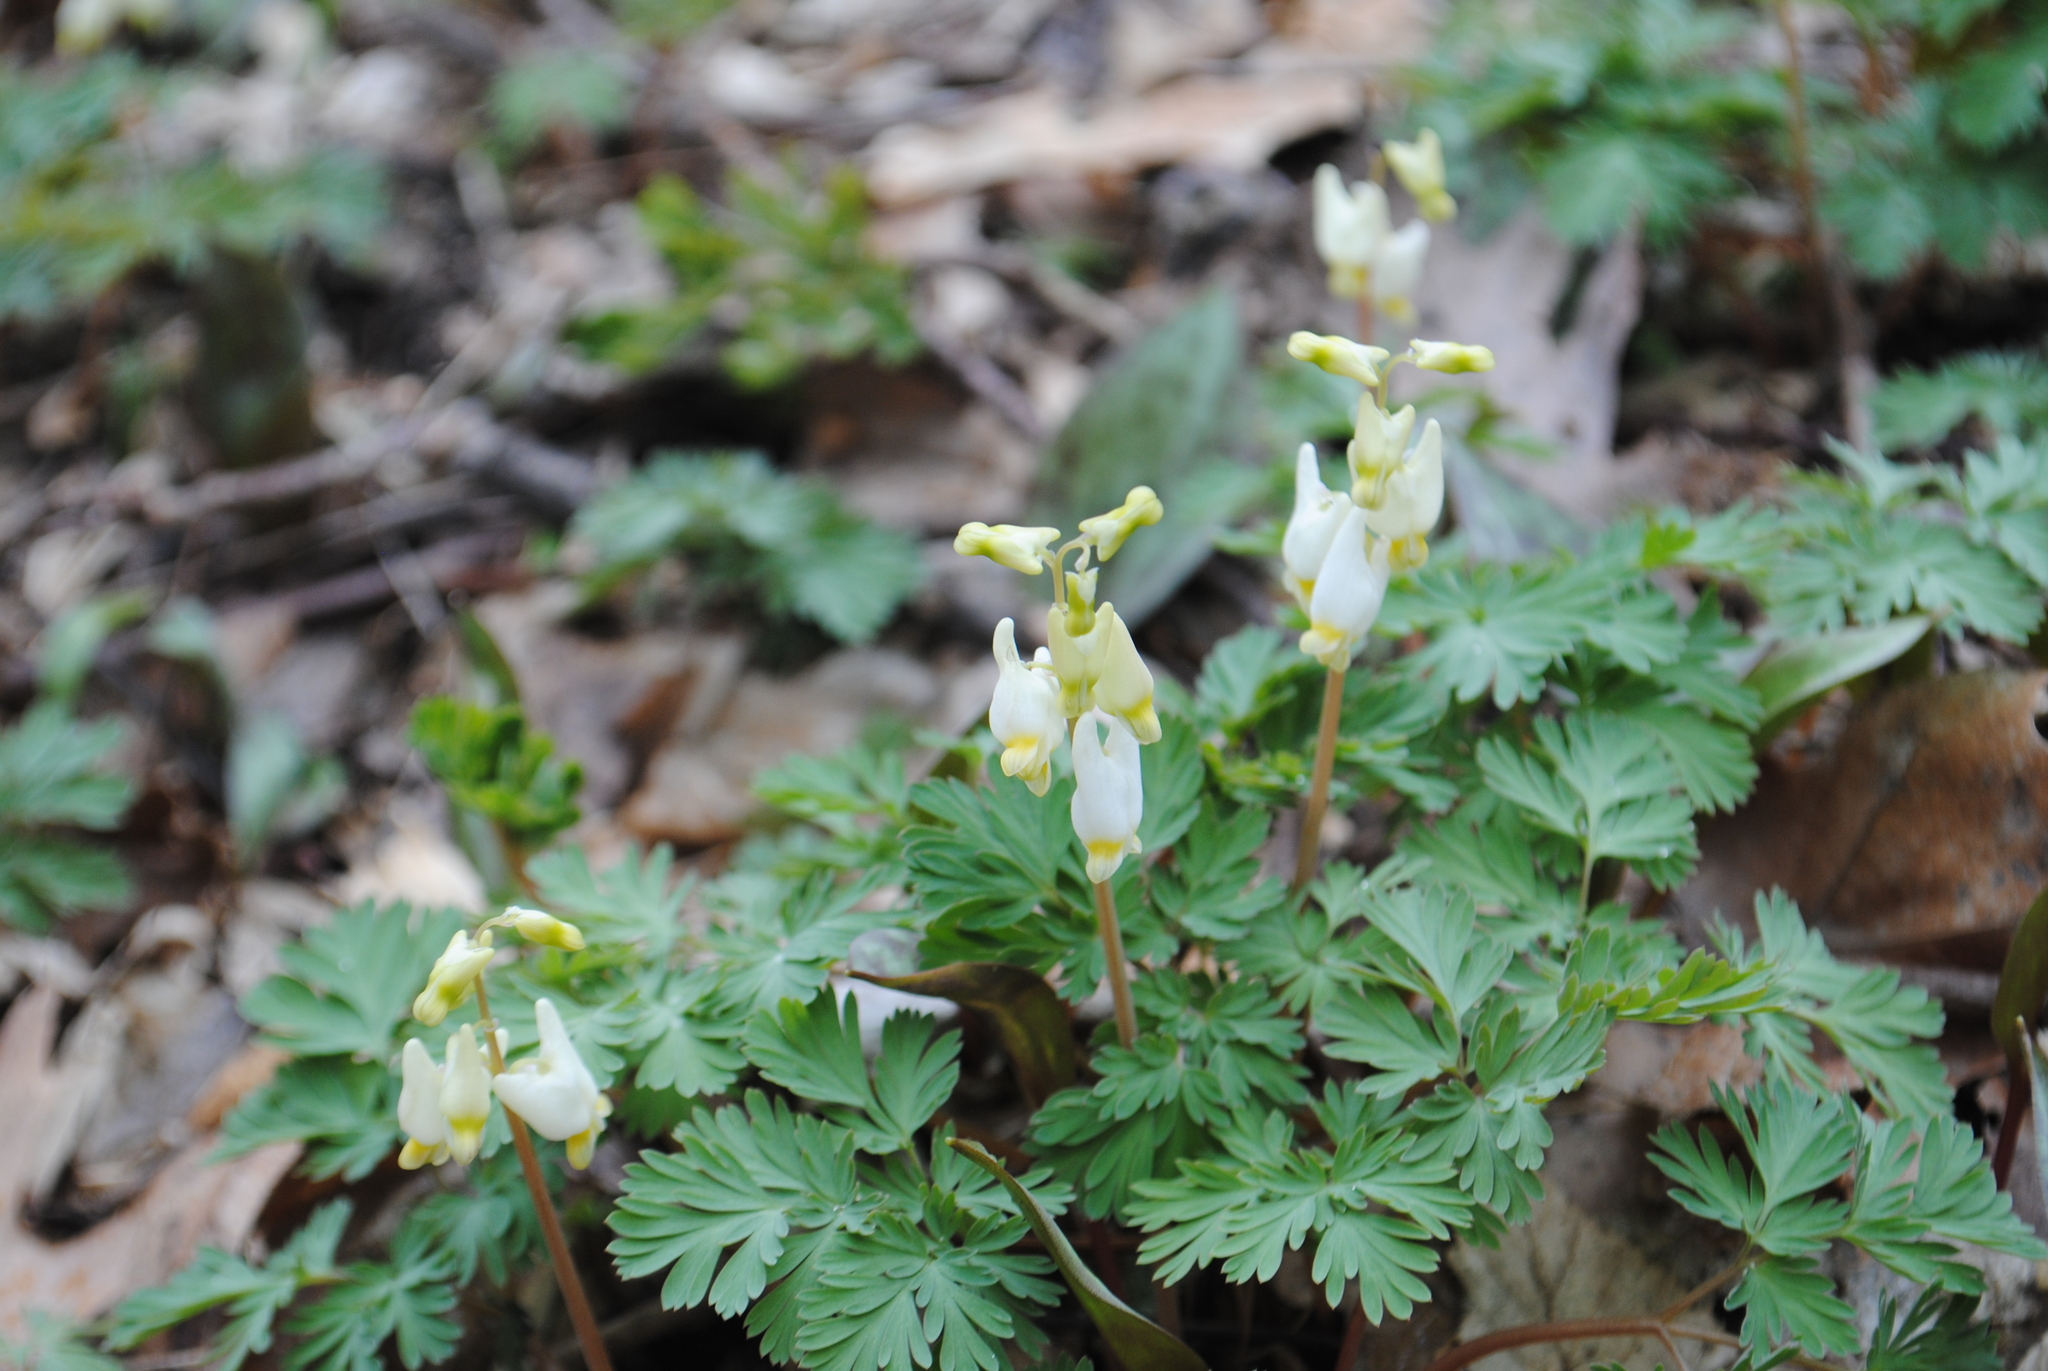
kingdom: Plantae
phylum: Tracheophyta
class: Magnoliopsida
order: Ranunculales
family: Papaveraceae
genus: Dicentra
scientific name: Dicentra cucullaria
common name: Dutchman's breeches
